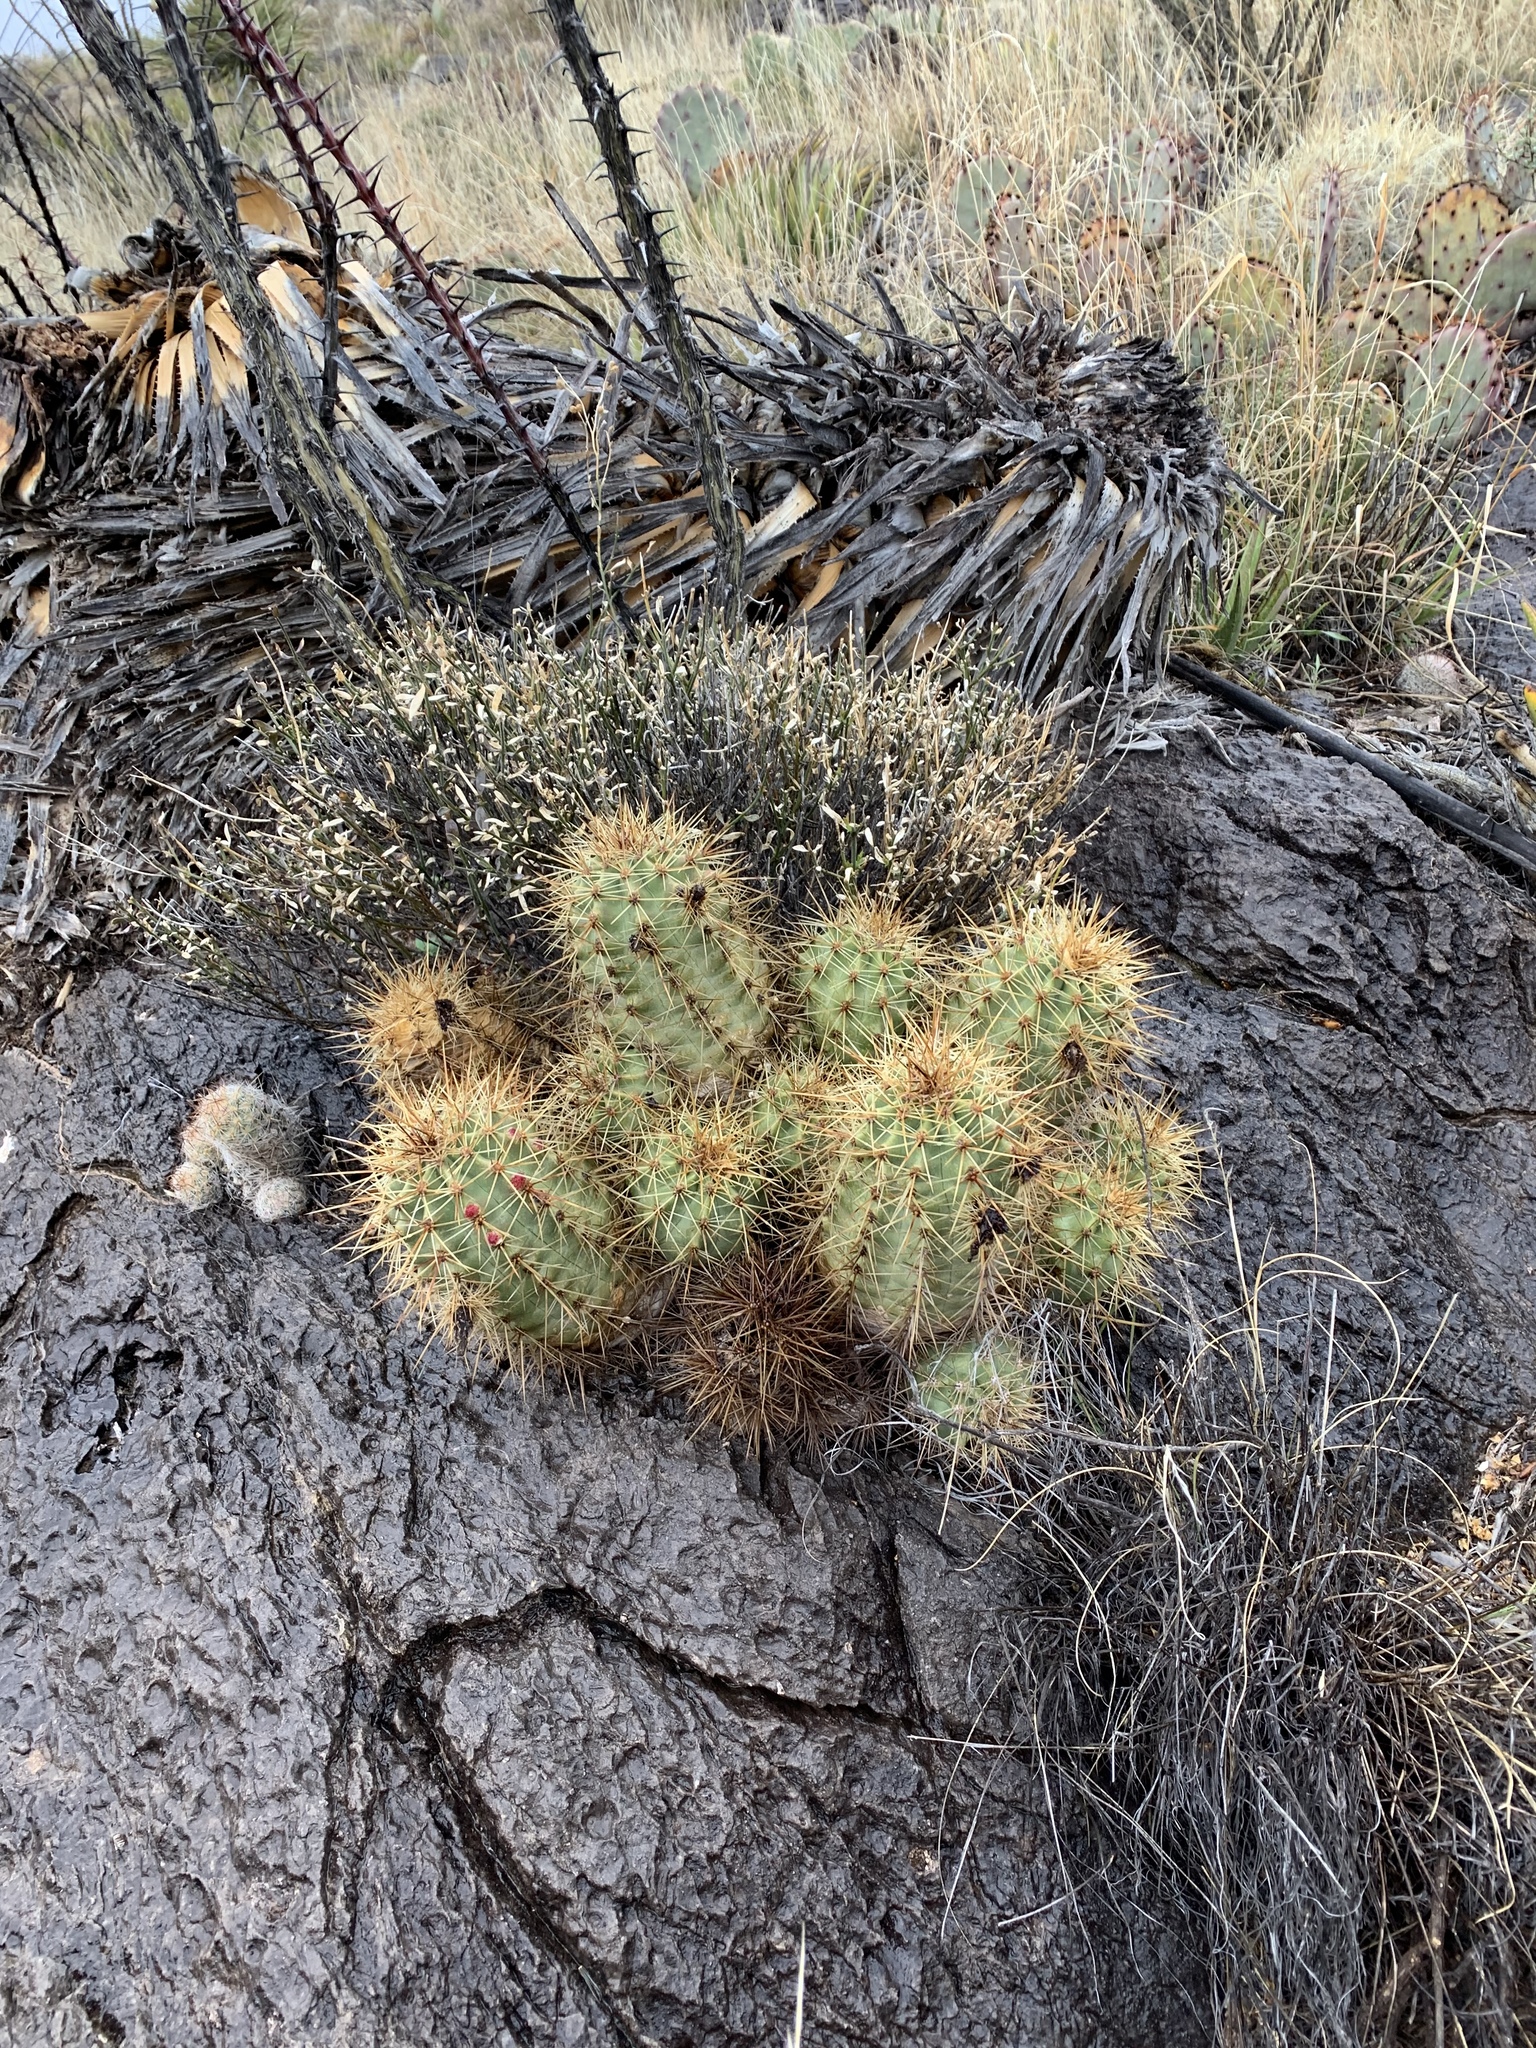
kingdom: Plantae
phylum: Tracheophyta
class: Magnoliopsida
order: Caryophyllales
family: Cactaceae
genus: Echinocereus
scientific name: Echinocereus coccineus
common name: Scarlet hedgehog cactus
